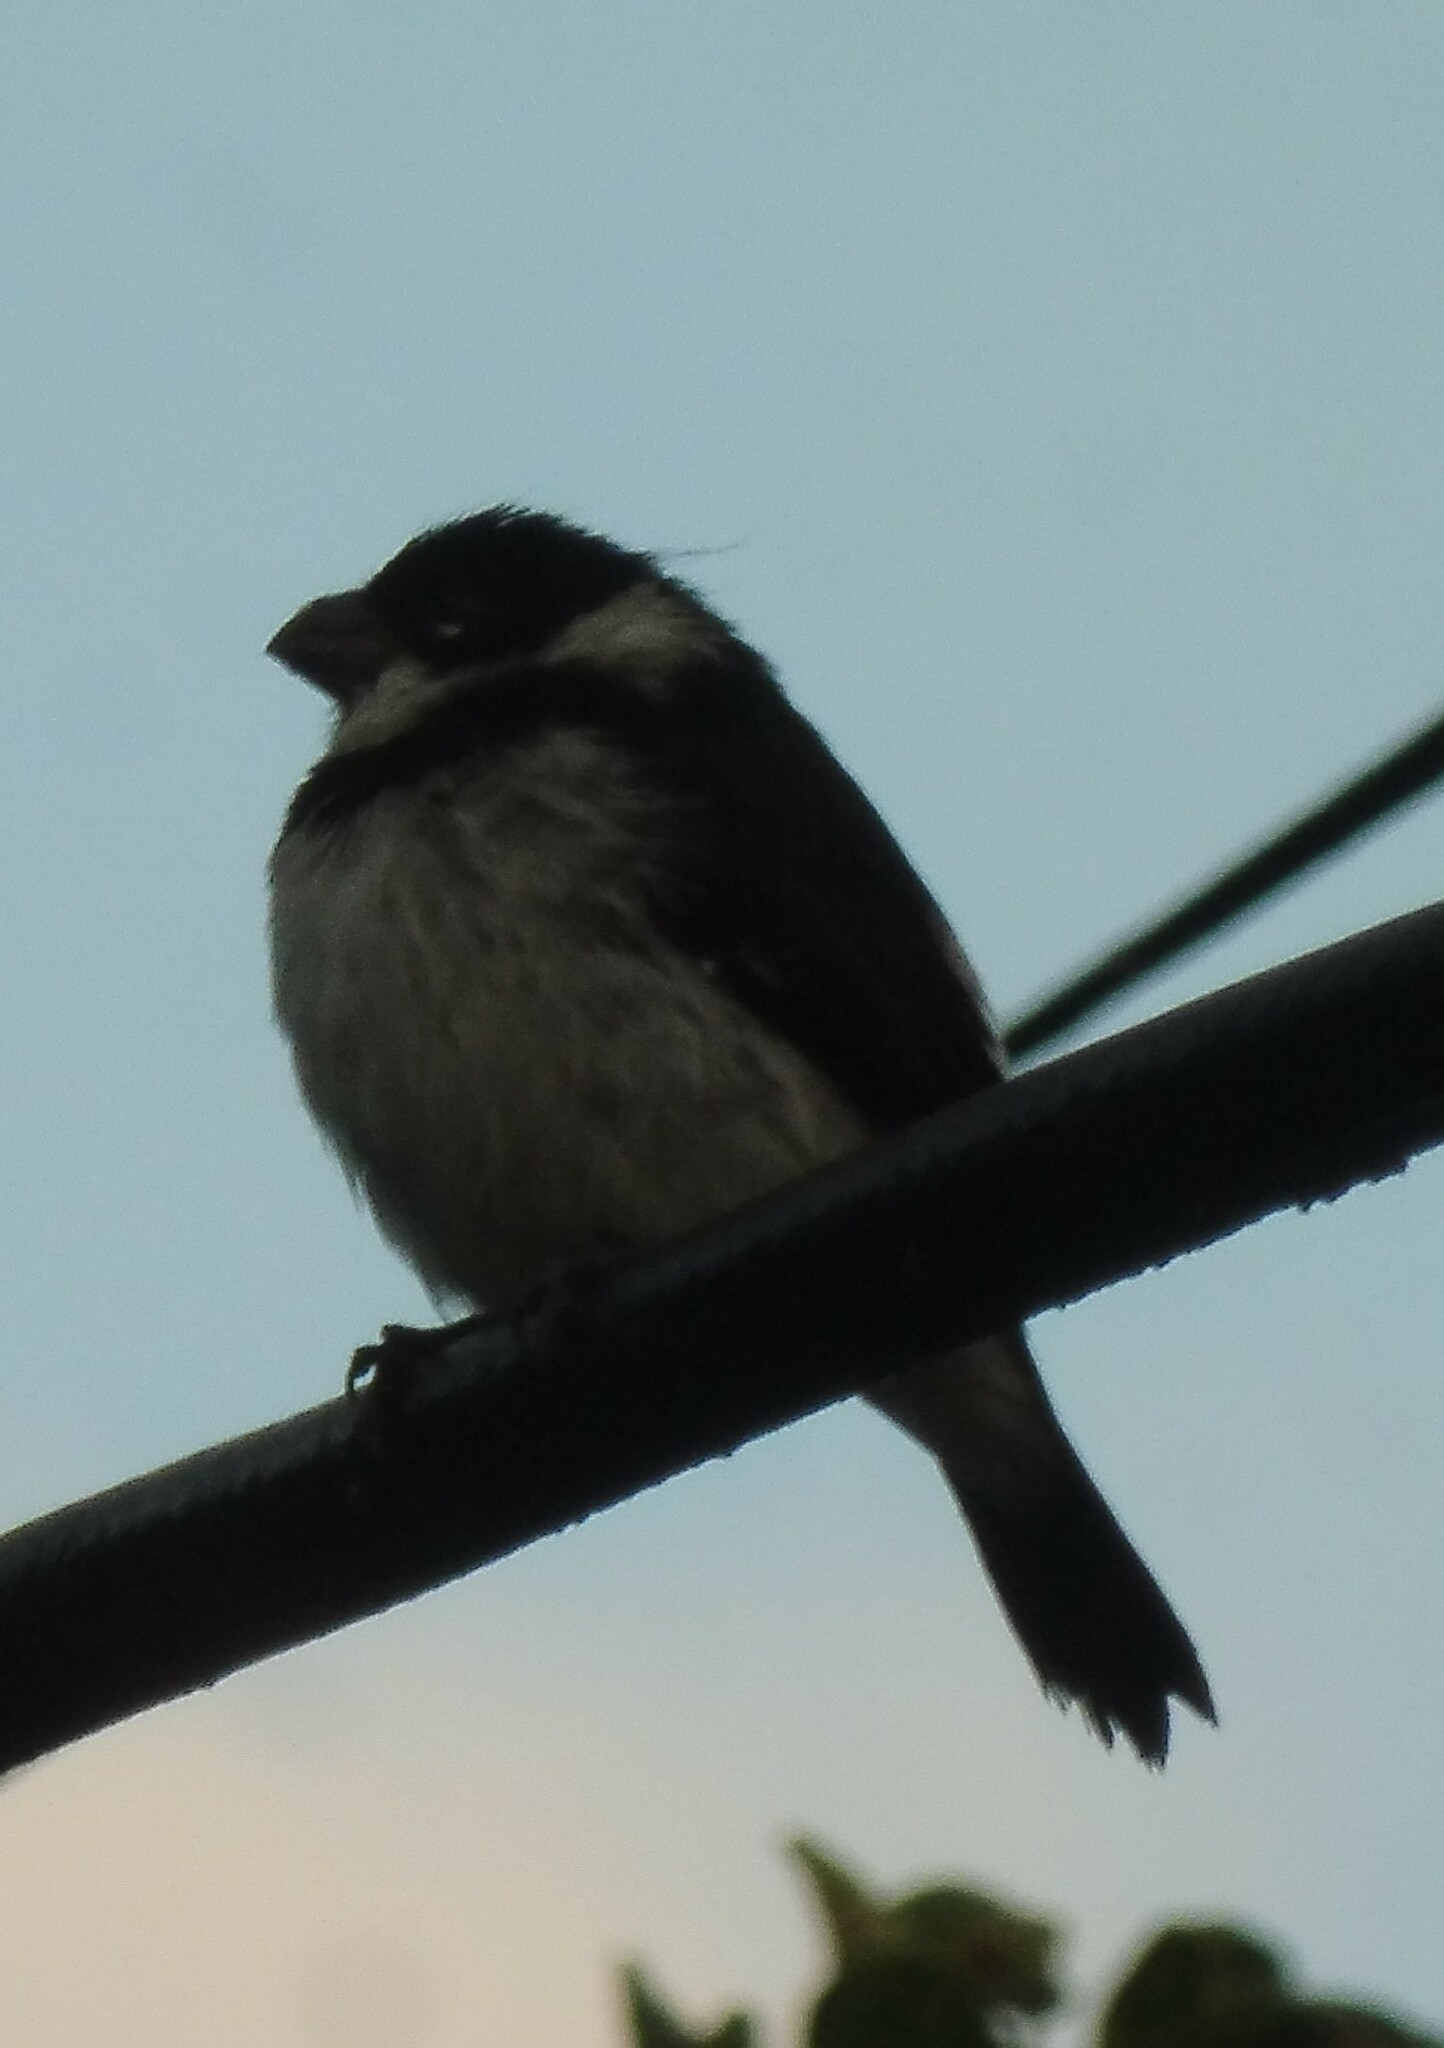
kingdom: Animalia
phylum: Chordata
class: Aves
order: Passeriformes
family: Thraupidae
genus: Sporophila
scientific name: Sporophila corvina
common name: Variable seedeater
